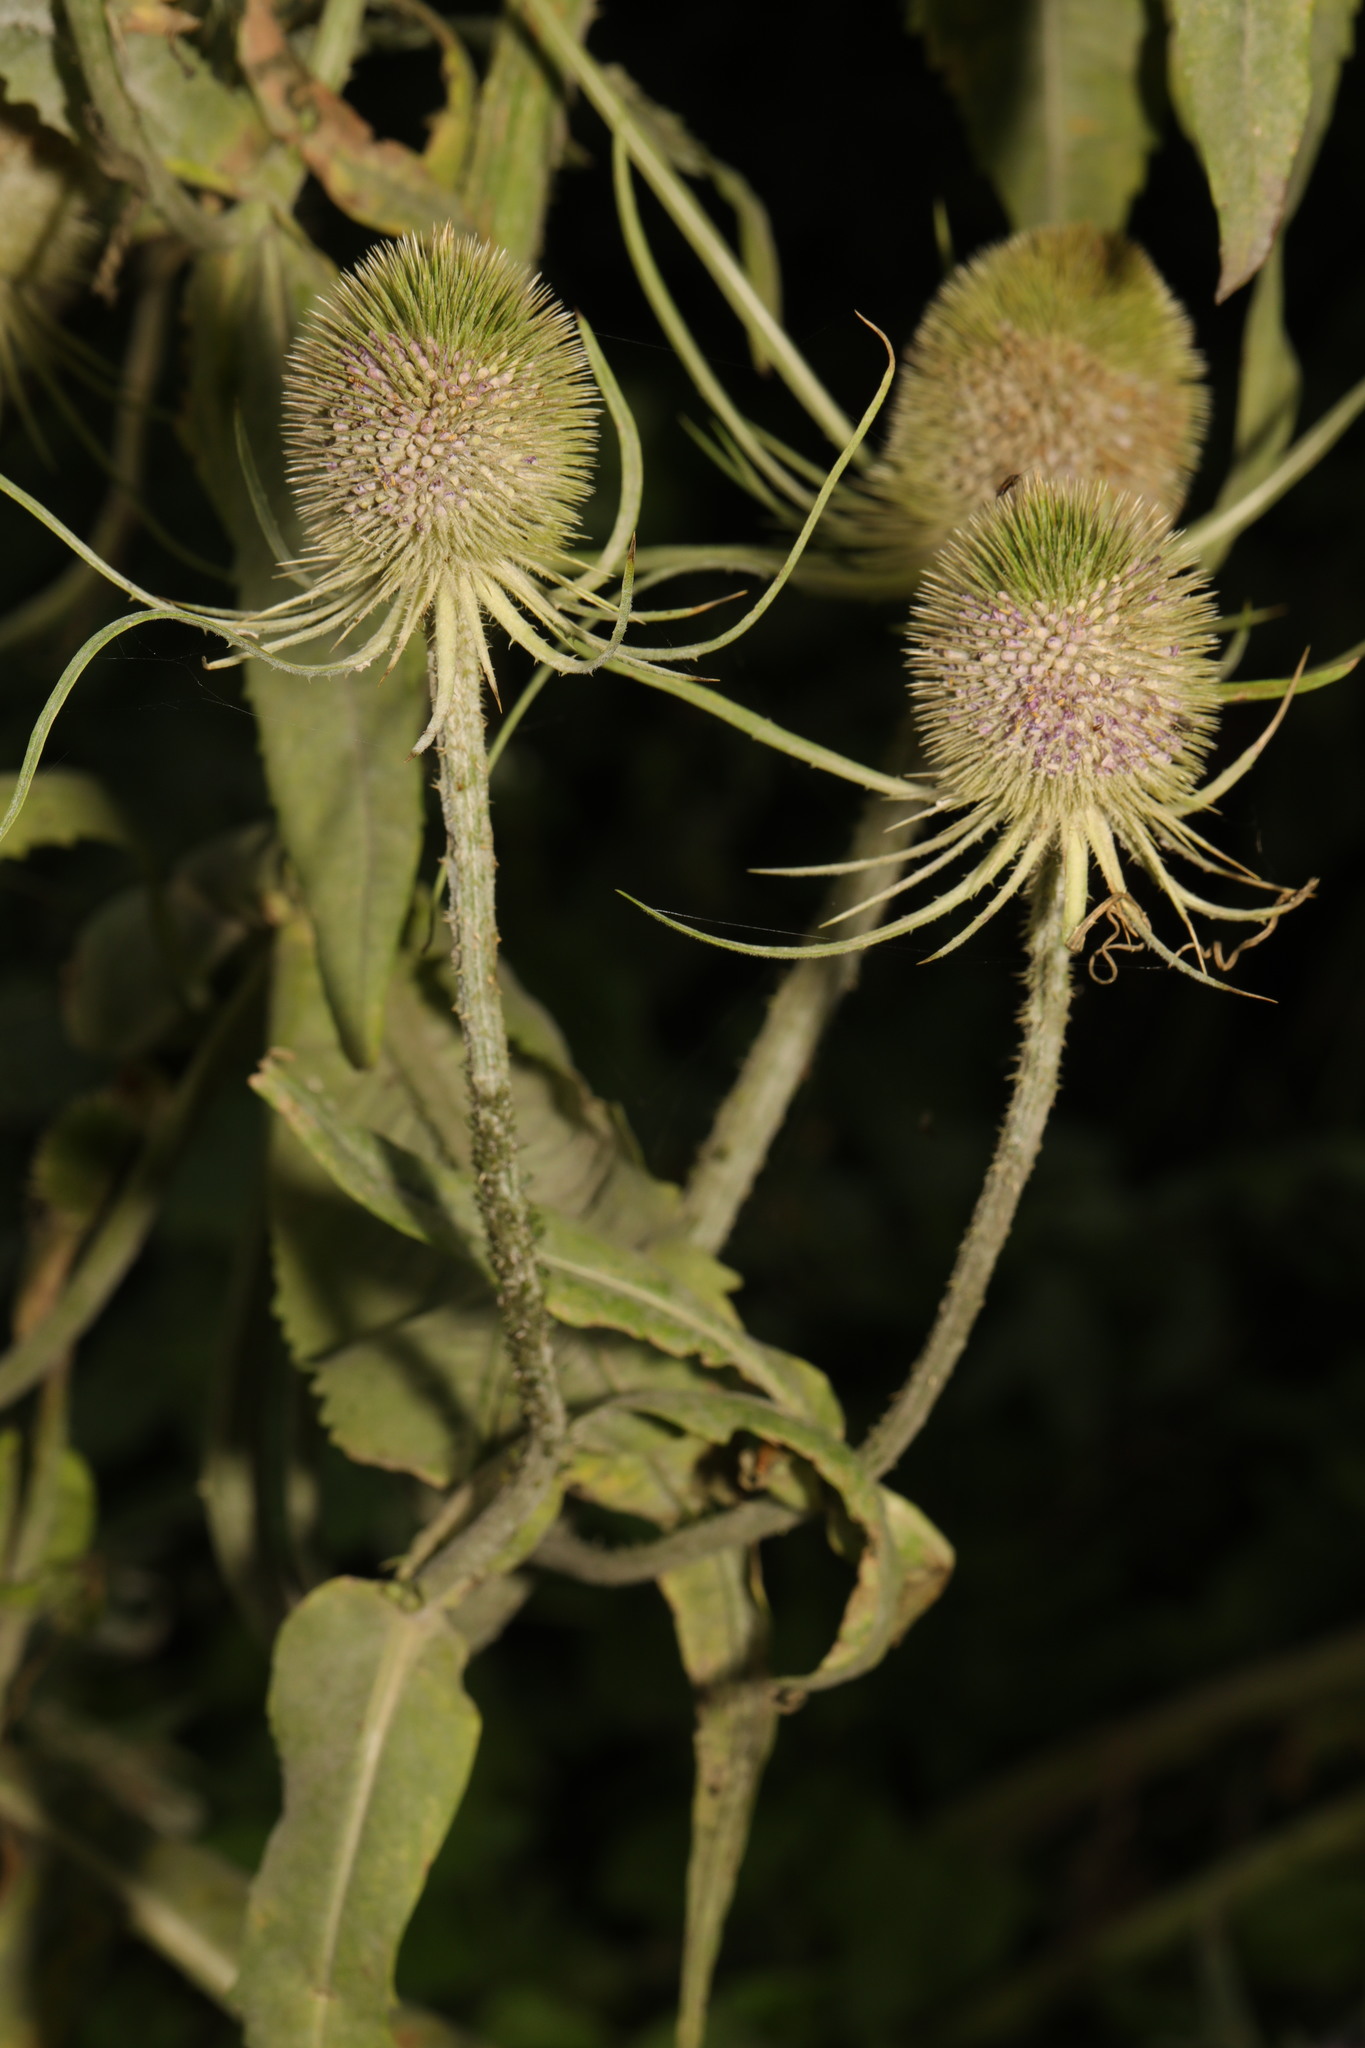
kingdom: Plantae
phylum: Tracheophyta
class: Magnoliopsida
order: Dipsacales
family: Caprifoliaceae
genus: Dipsacus
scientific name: Dipsacus fullonum
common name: Teasel
